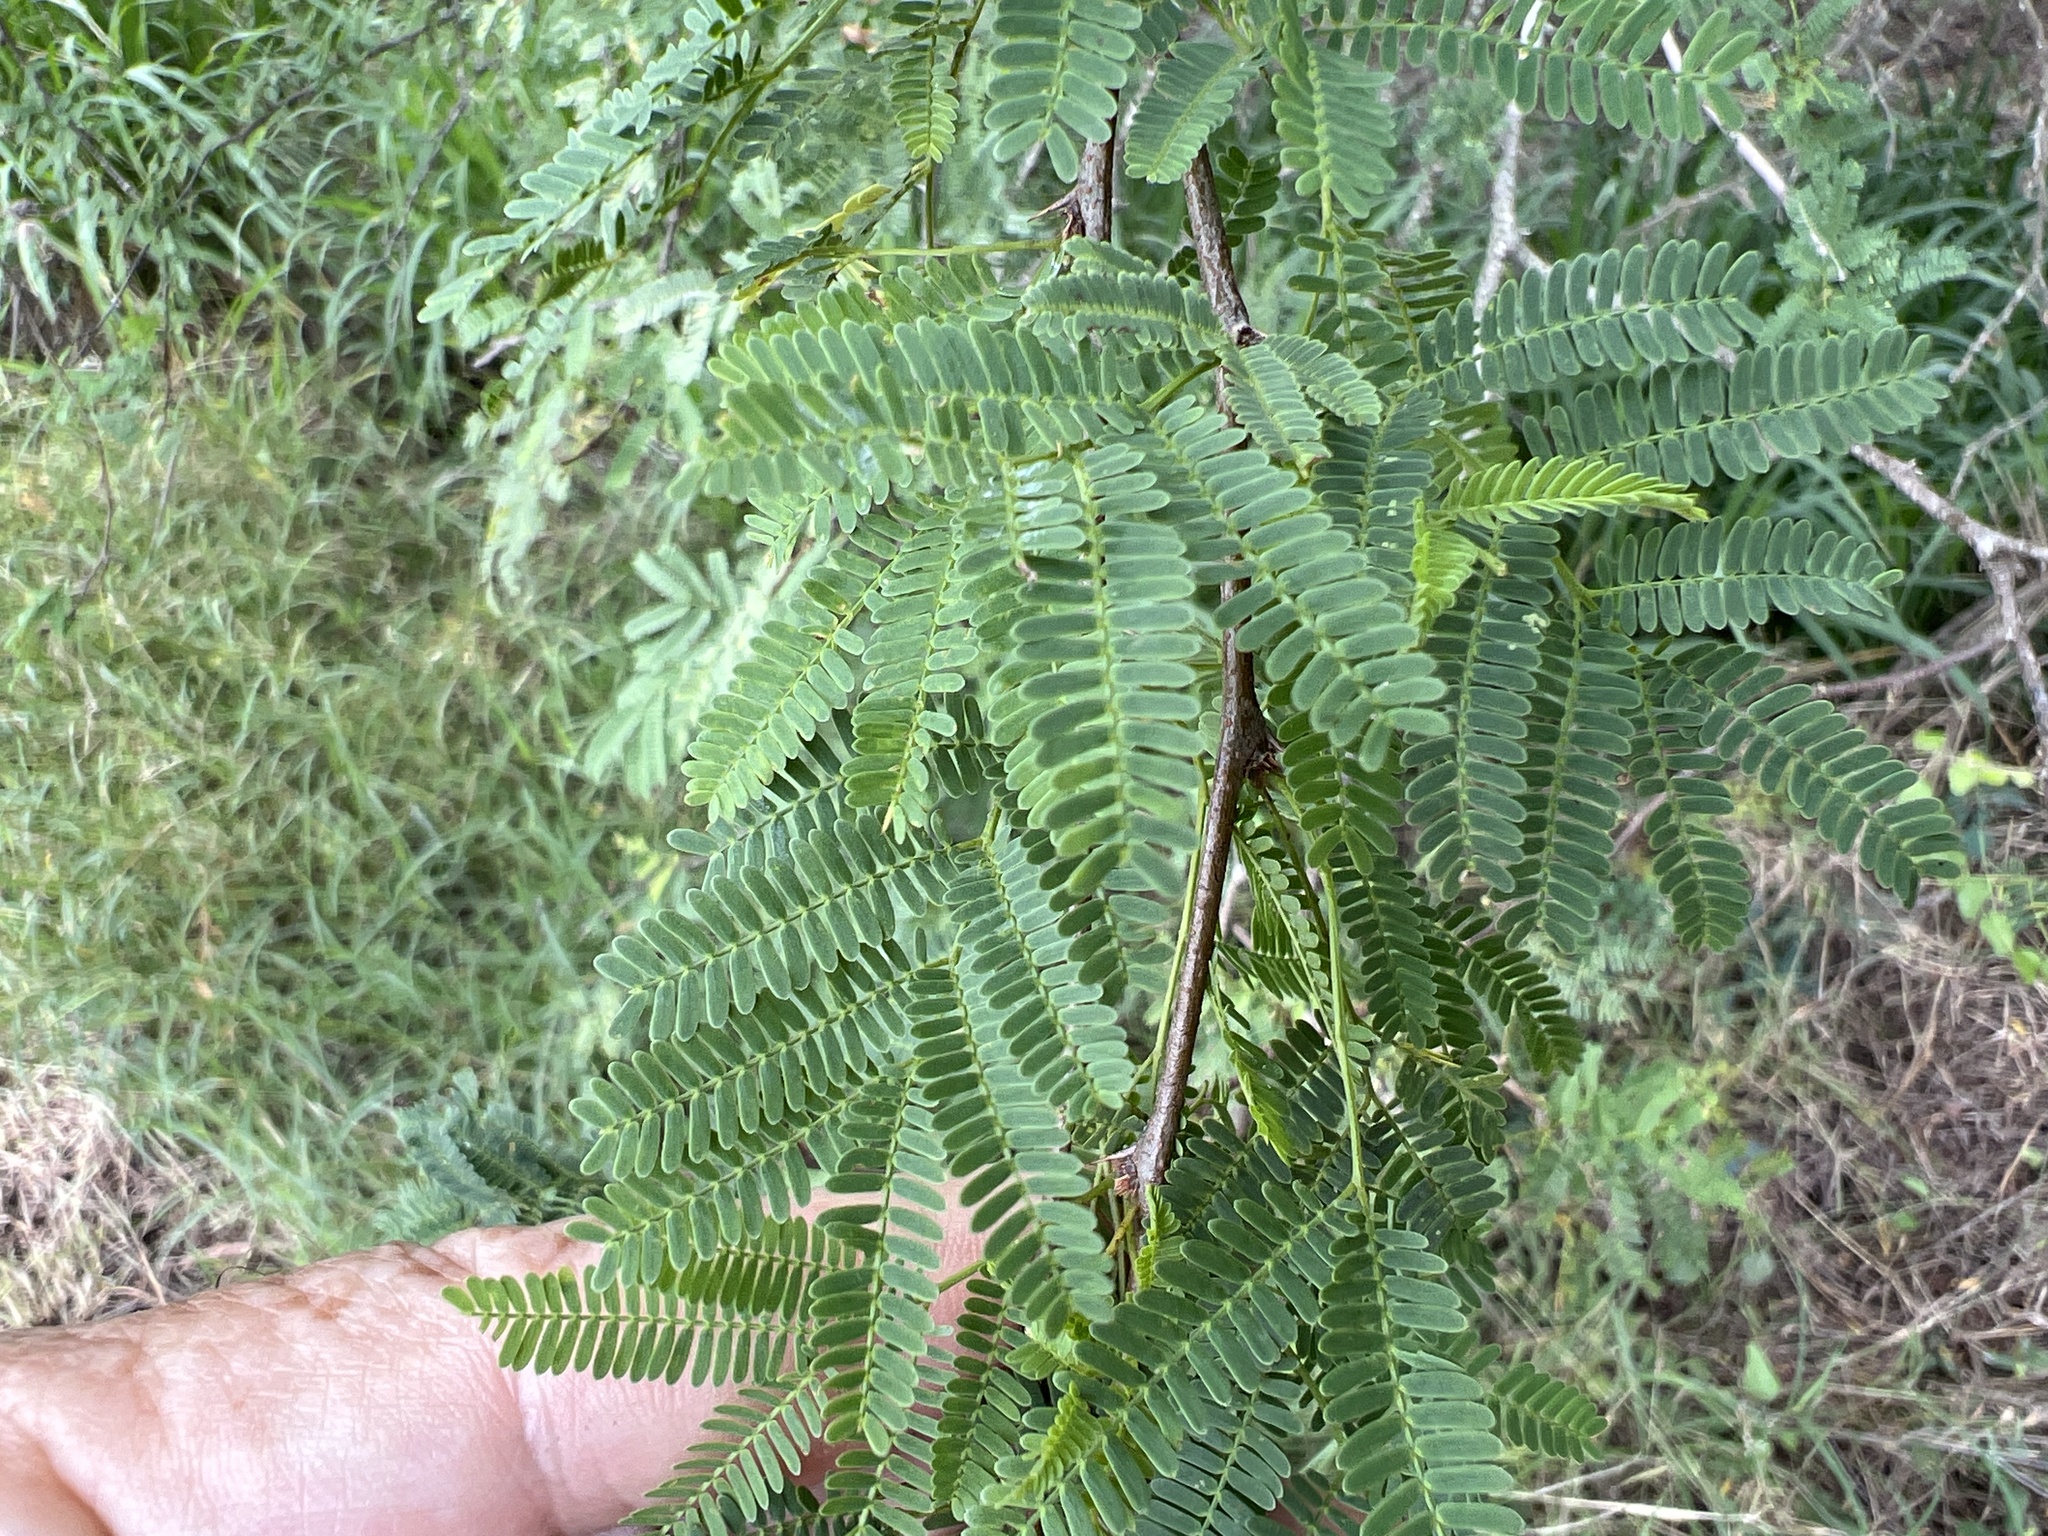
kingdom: Plantae
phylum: Tracheophyta
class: Magnoliopsida
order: Fabales
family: Fabaceae
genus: Vachellia
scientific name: Vachellia farnesiana
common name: Sweet acacia
